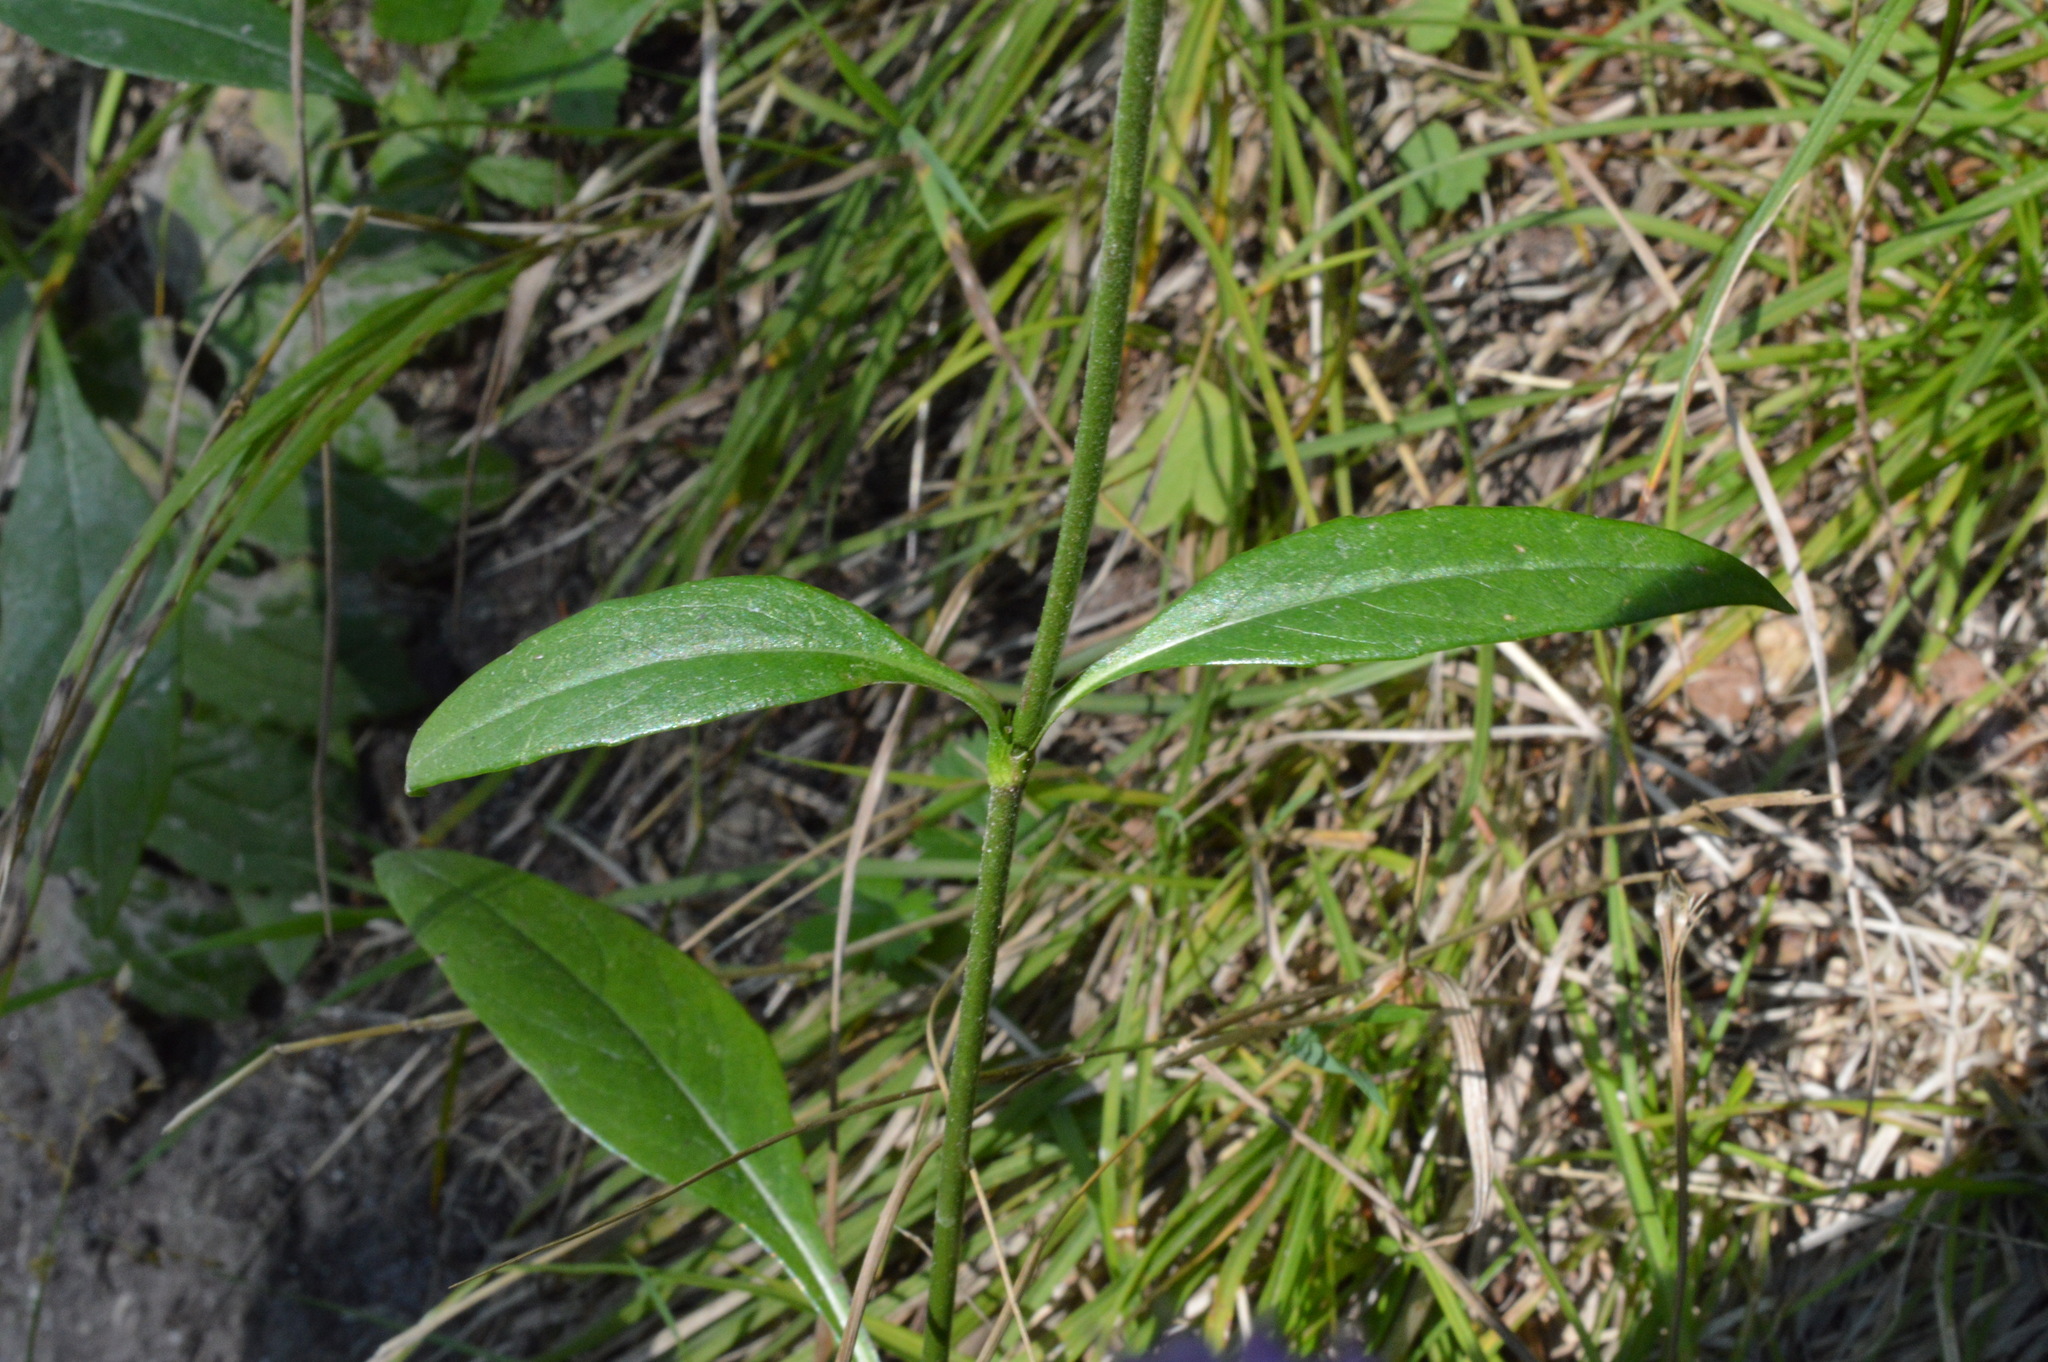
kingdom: Plantae
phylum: Tracheophyta
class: Magnoliopsida
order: Dipsacales
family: Caprifoliaceae
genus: Succisa
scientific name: Succisa pratensis
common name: Devil's-bit
